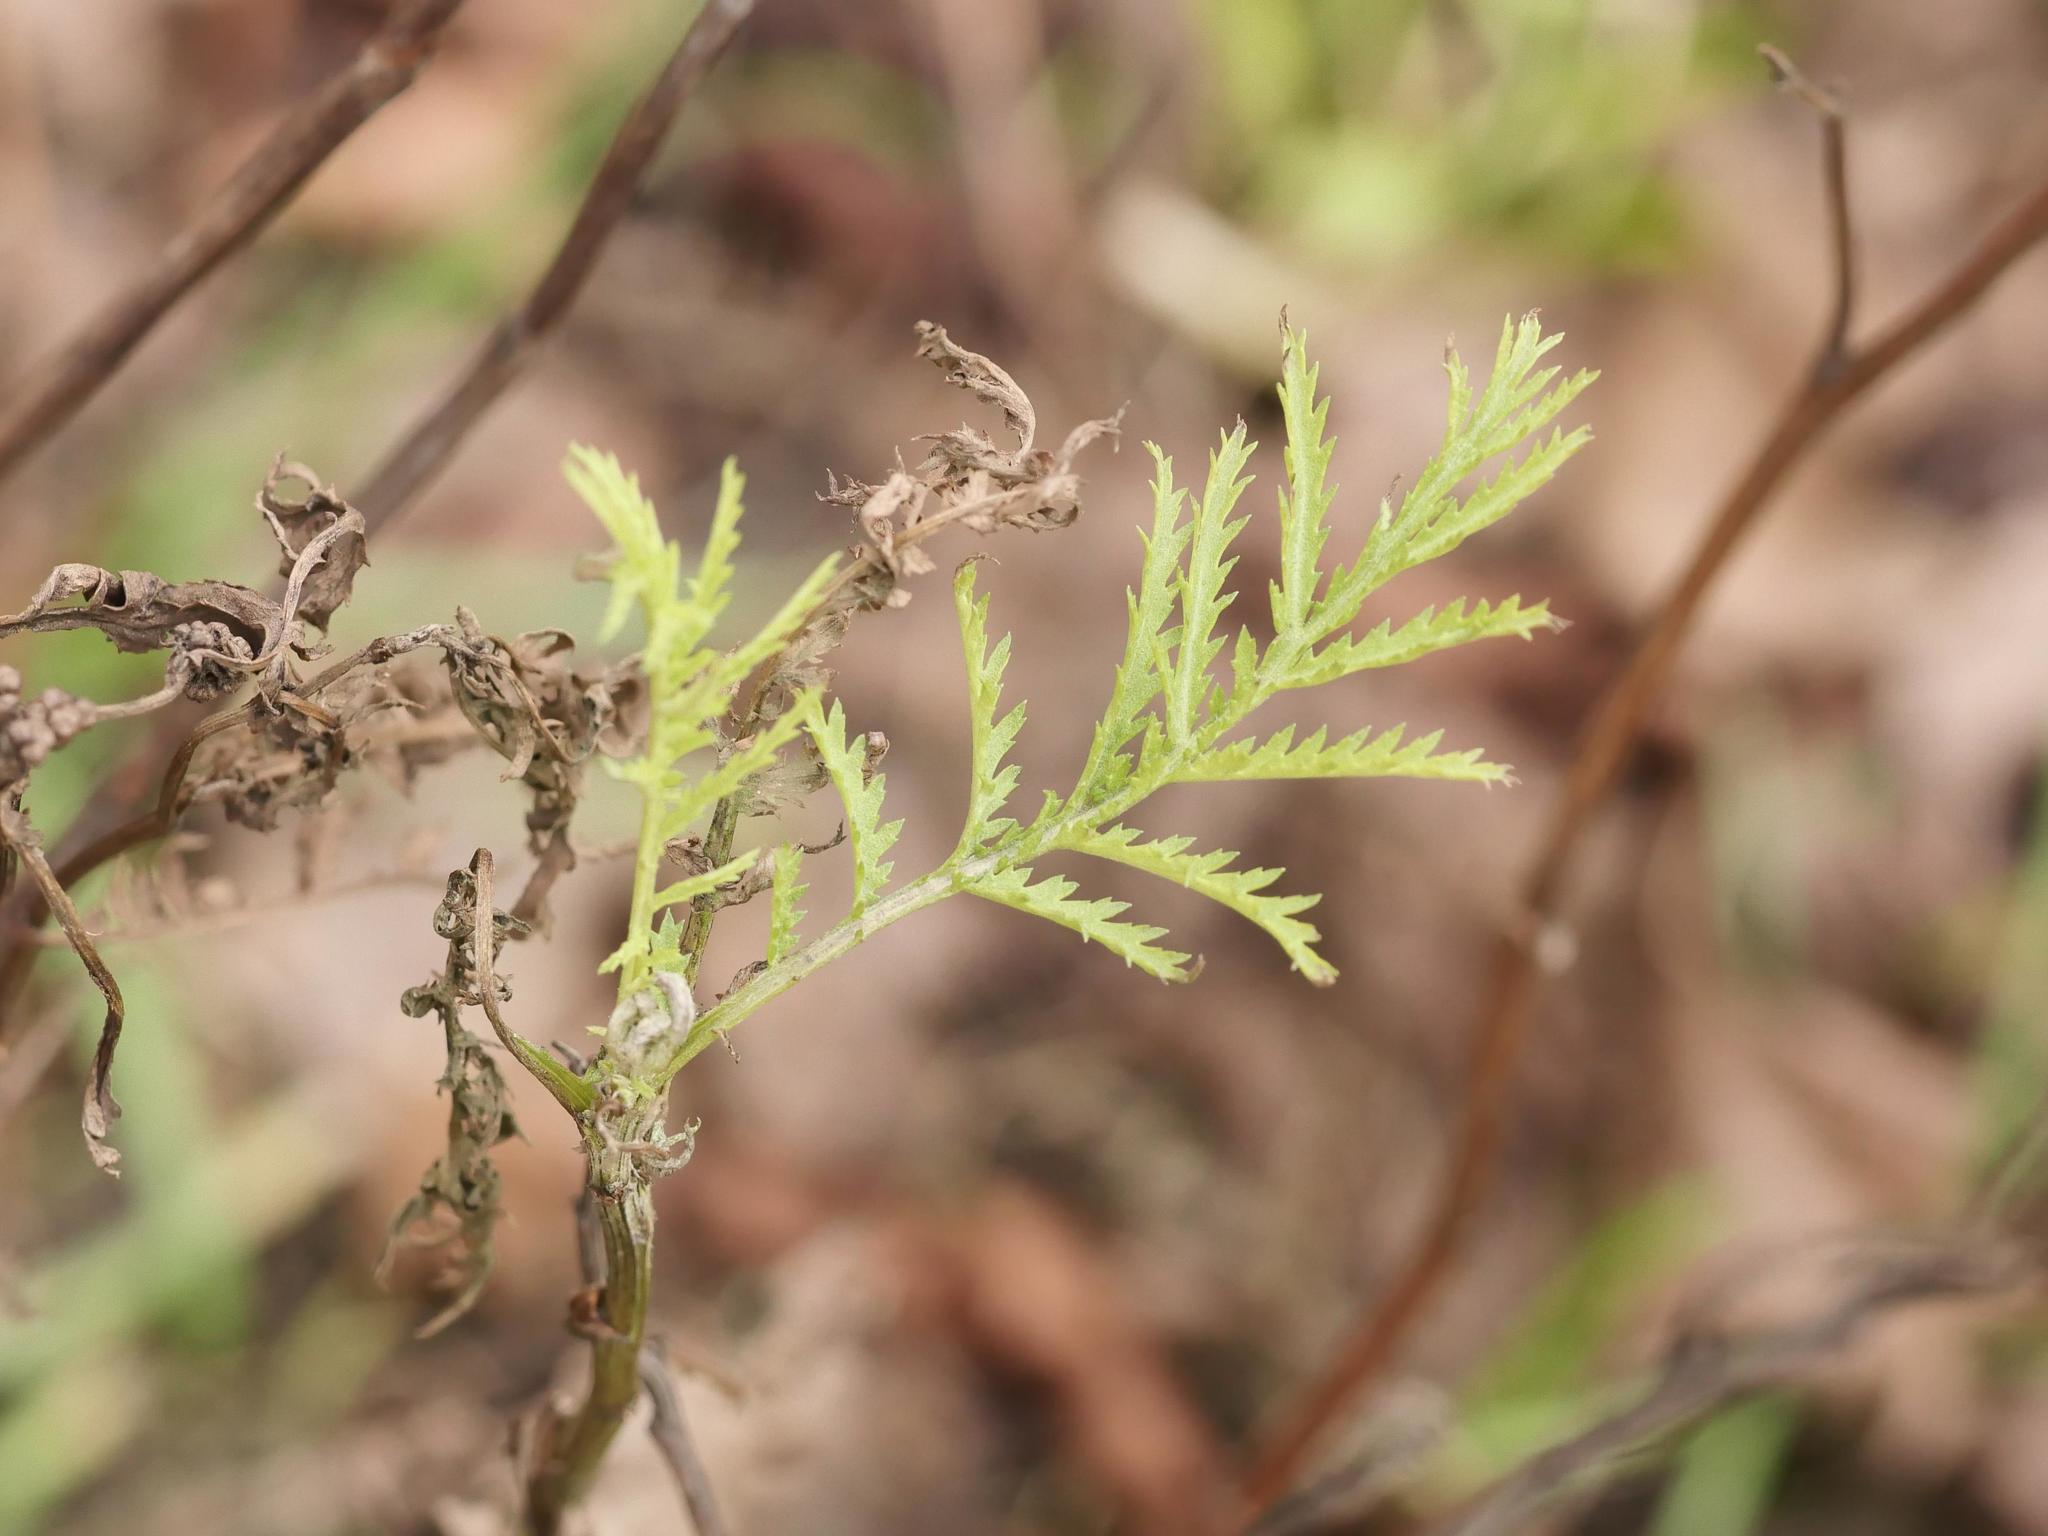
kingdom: Plantae
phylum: Tracheophyta
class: Magnoliopsida
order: Asterales
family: Asteraceae
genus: Tanacetum
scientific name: Tanacetum vulgare
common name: Common tansy
